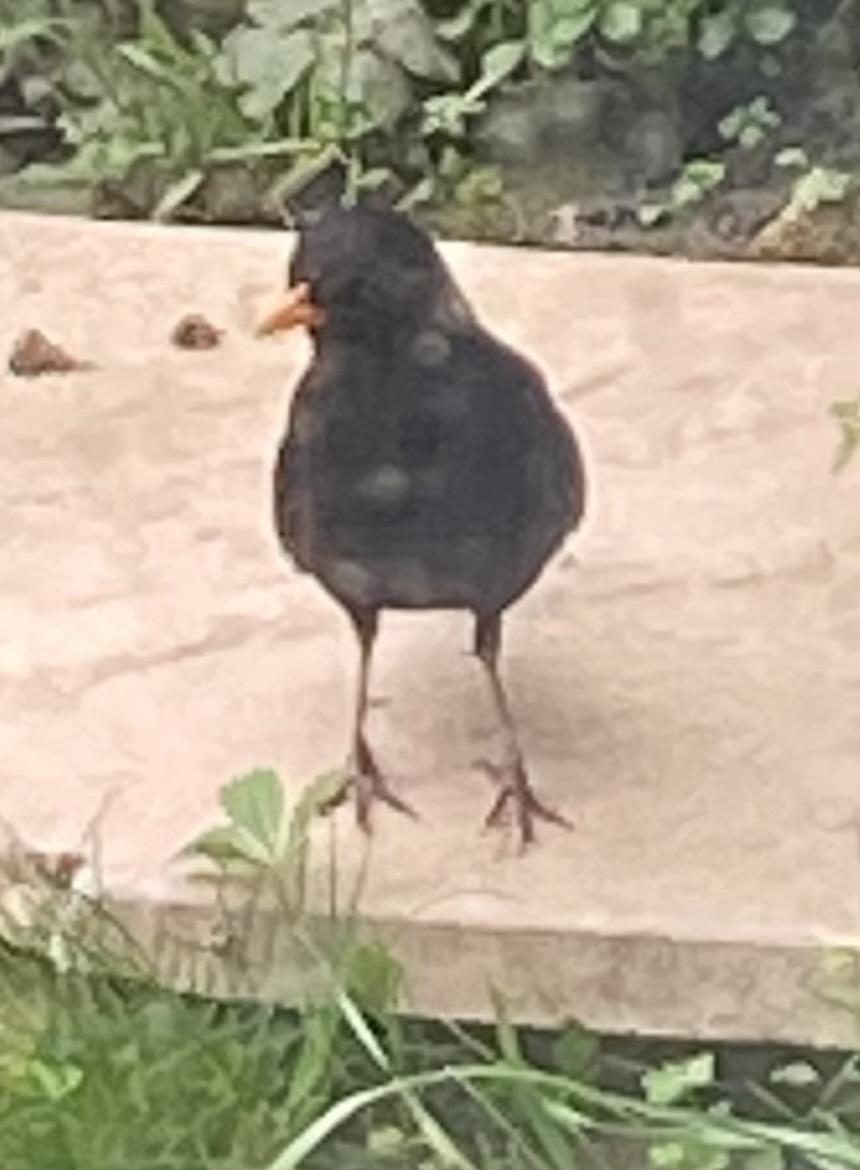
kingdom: Animalia
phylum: Chordata
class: Aves
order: Passeriformes
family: Turdidae
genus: Turdus
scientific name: Turdus merula
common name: Common blackbird
